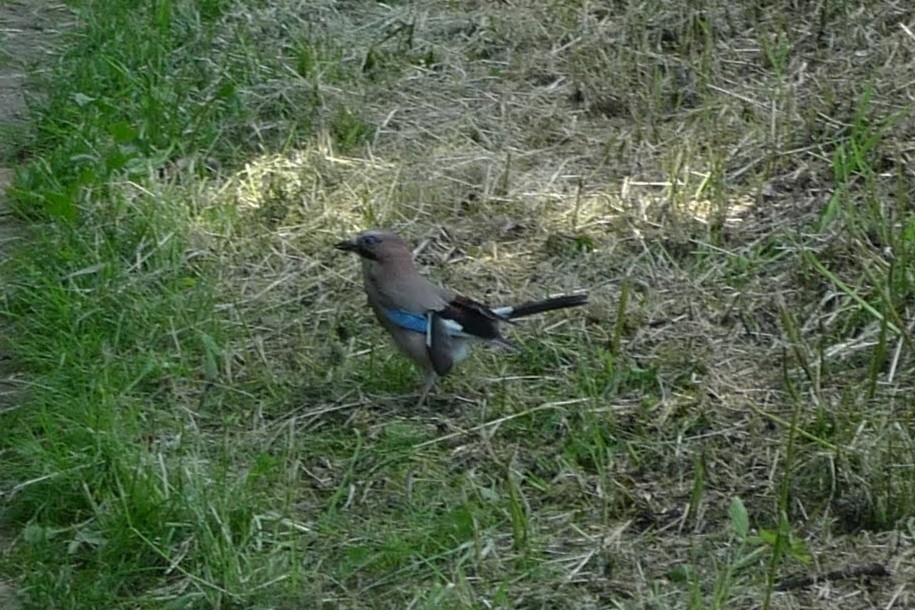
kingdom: Animalia
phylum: Chordata
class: Aves
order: Passeriformes
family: Corvidae
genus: Garrulus
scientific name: Garrulus glandarius
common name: Eurasian jay
